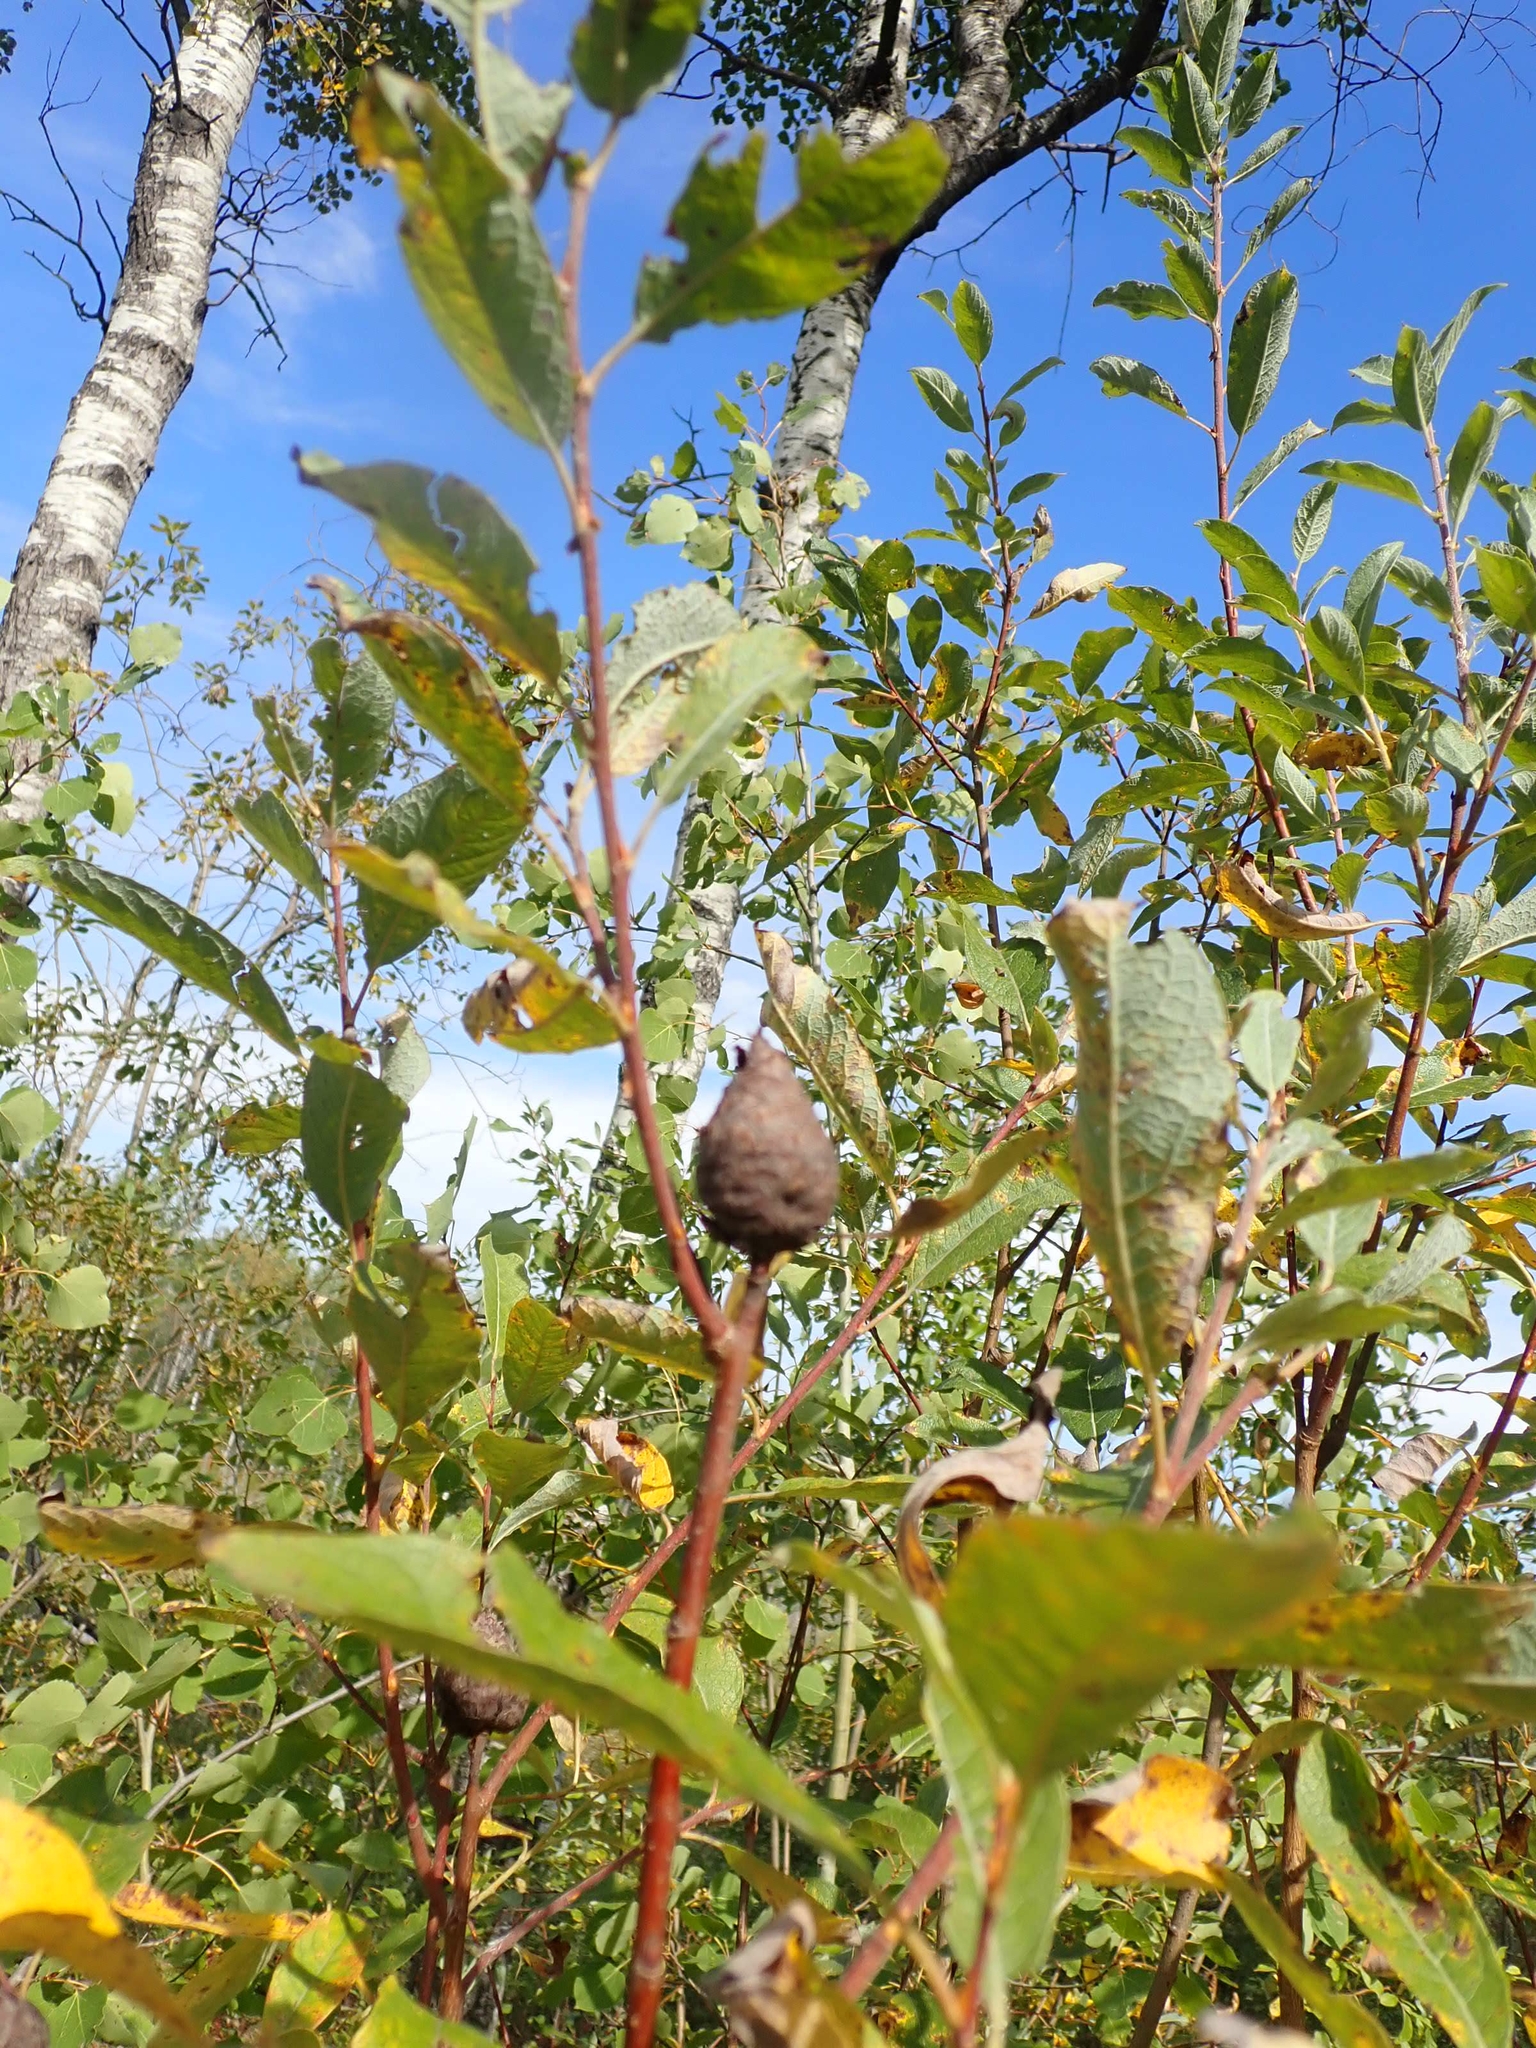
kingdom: Animalia
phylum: Arthropoda
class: Insecta
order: Diptera
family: Cecidomyiidae
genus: Rabdophaga
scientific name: Rabdophaga strobiloides
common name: Willow pinecone gall midge
